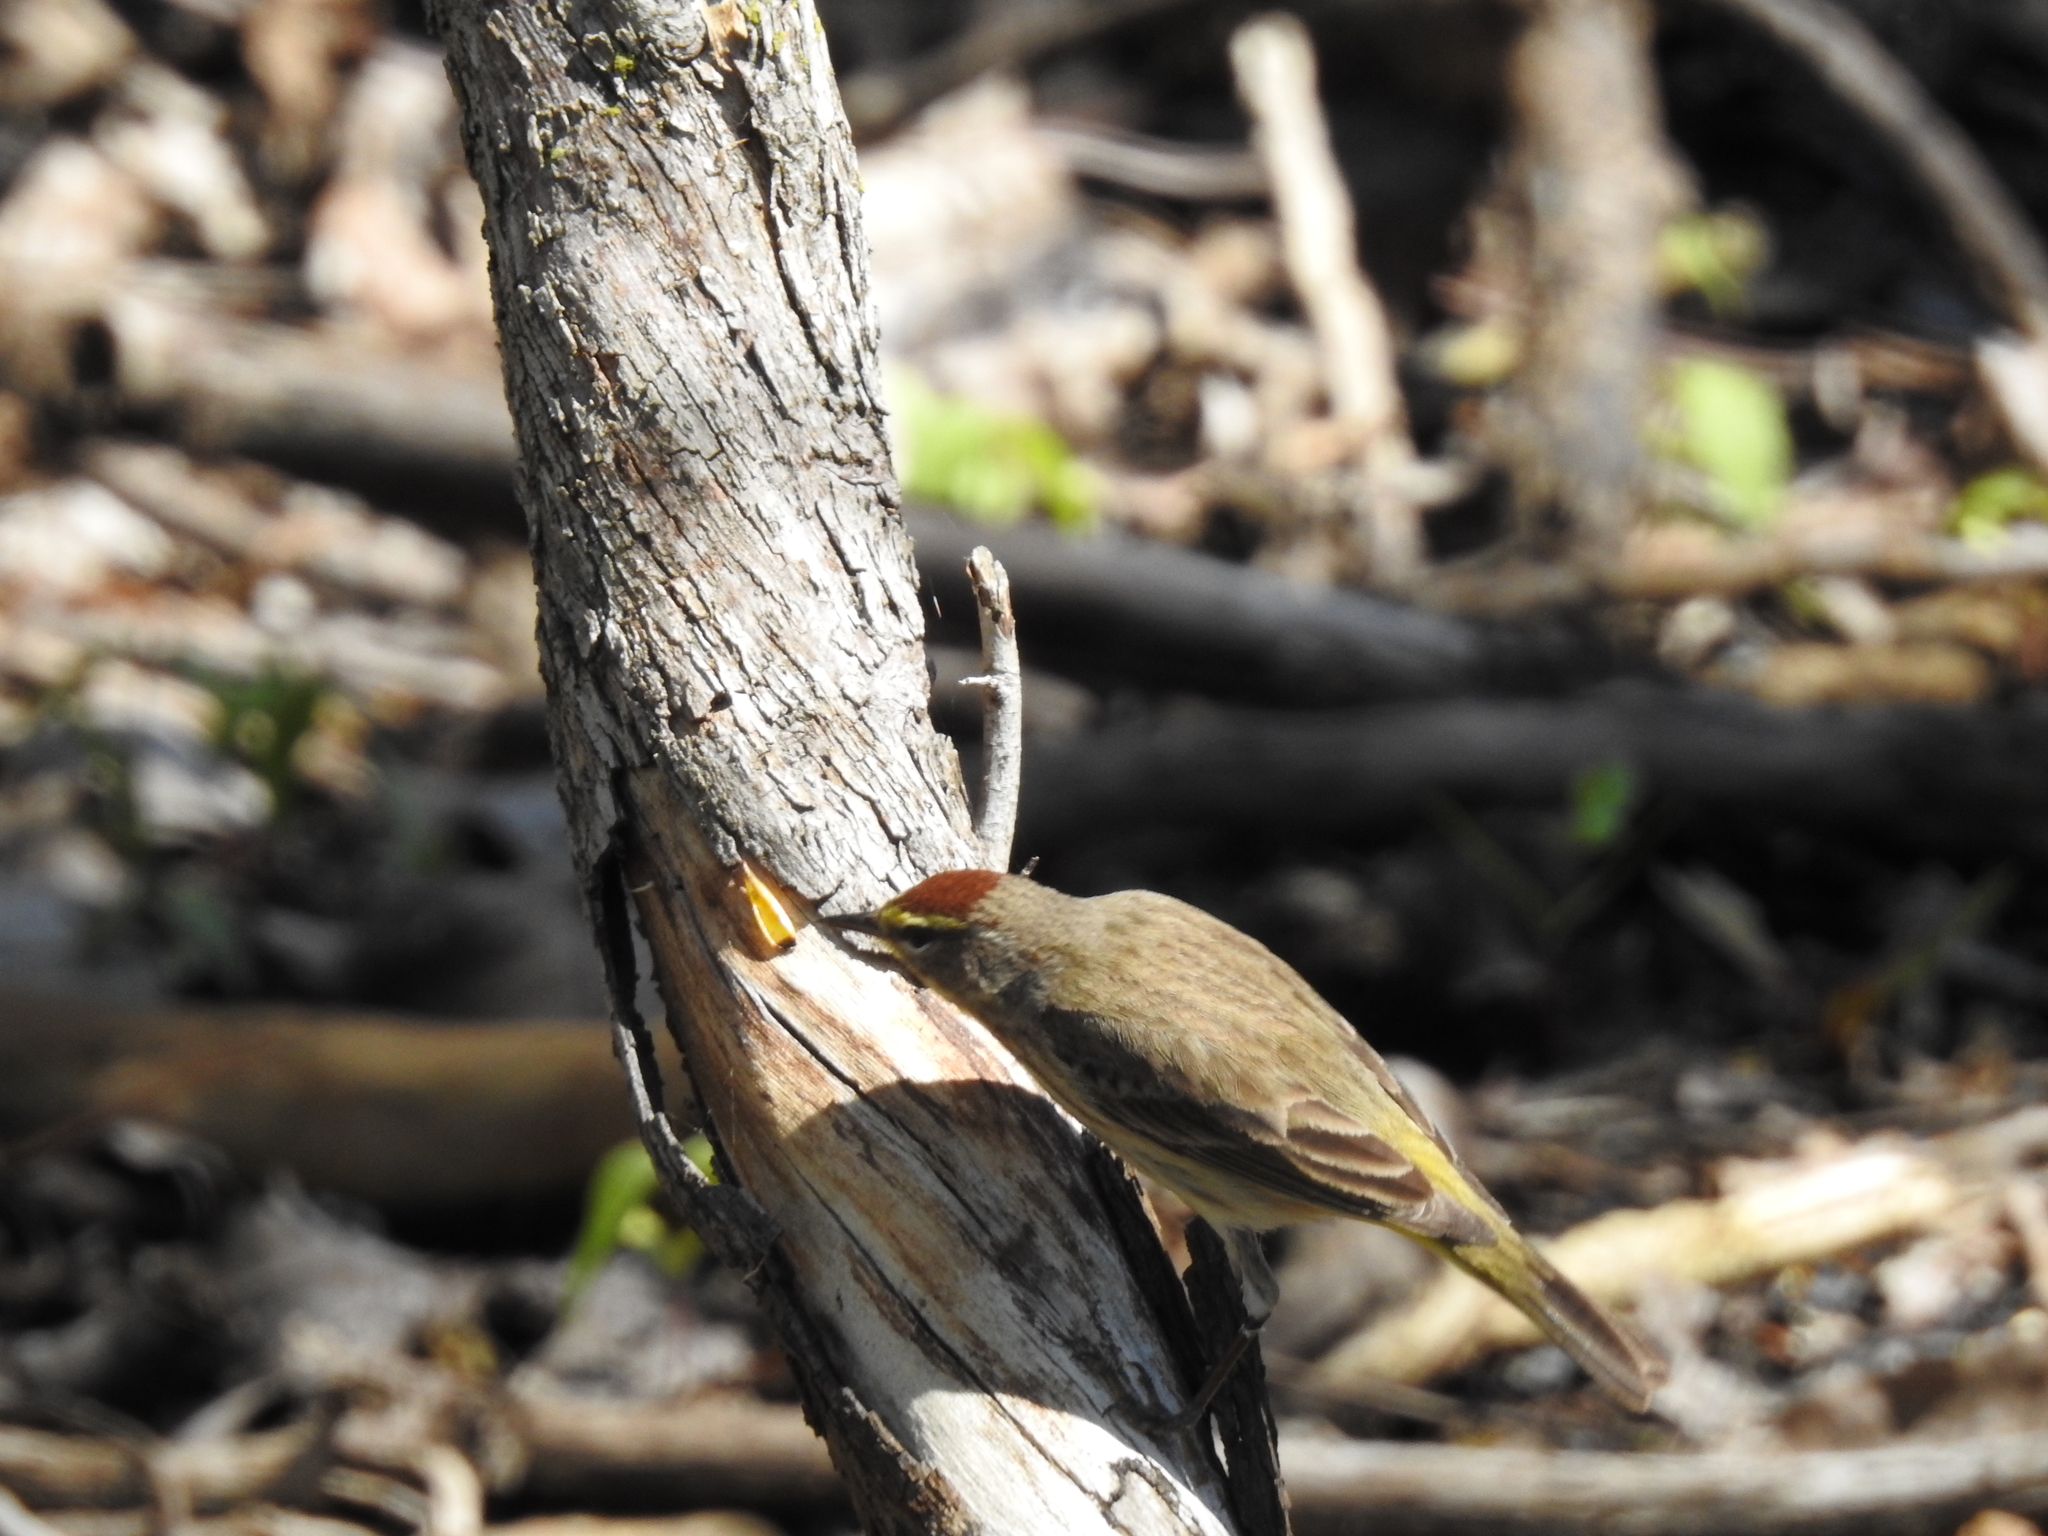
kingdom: Animalia
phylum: Chordata
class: Aves
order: Passeriformes
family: Parulidae
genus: Setophaga
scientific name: Setophaga palmarum
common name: Palm warbler
